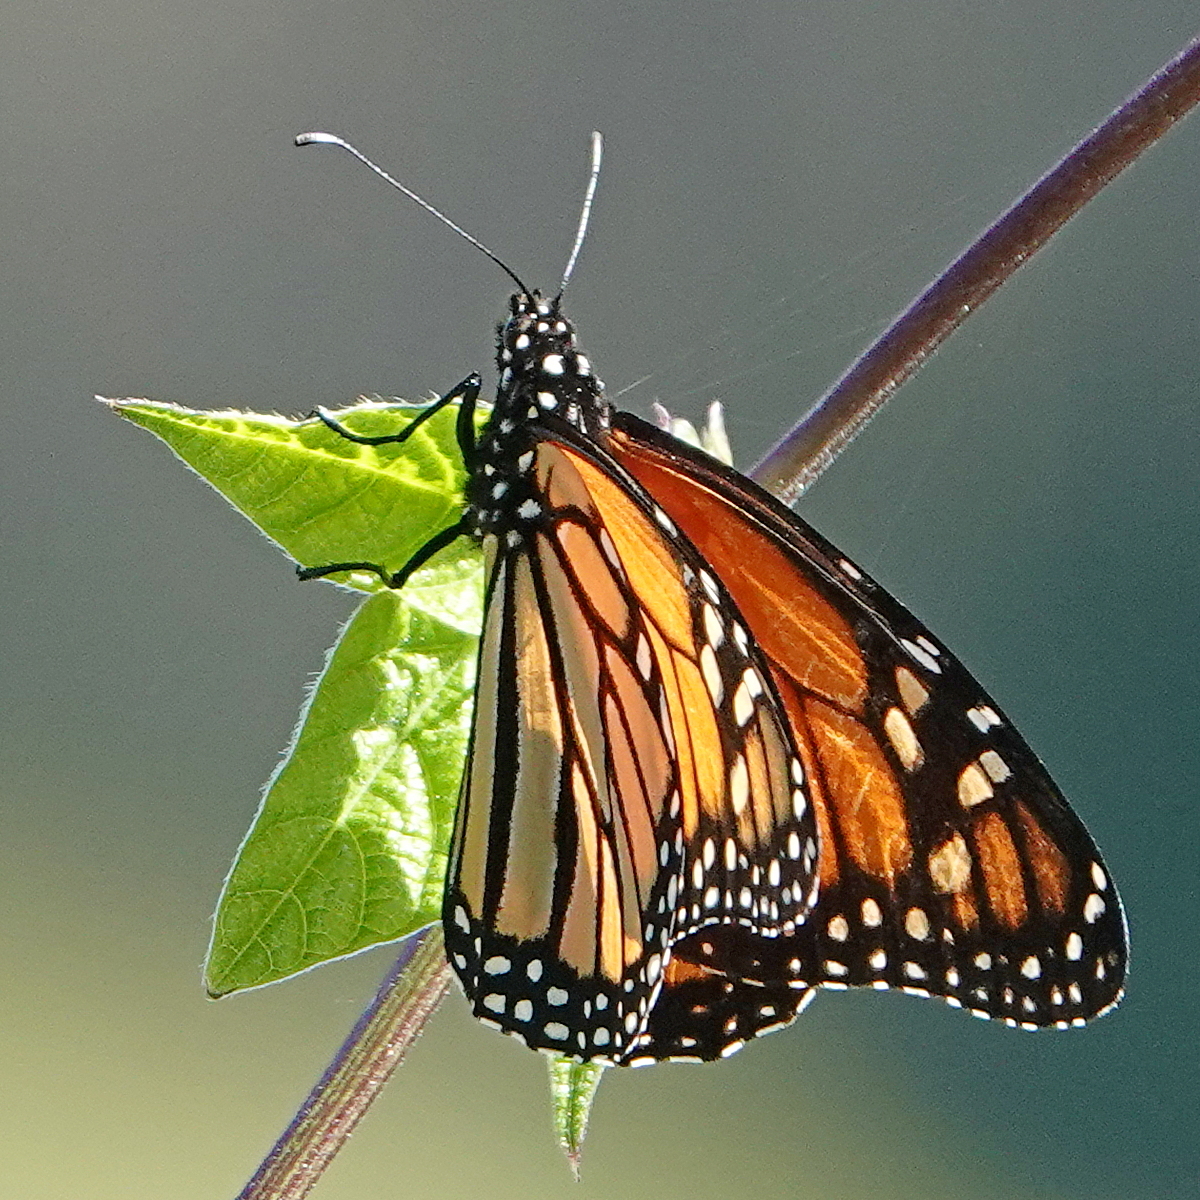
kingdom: Animalia
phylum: Arthropoda
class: Insecta
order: Lepidoptera
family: Nymphalidae
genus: Danaus
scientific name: Danaus plexippus
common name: Monarch
